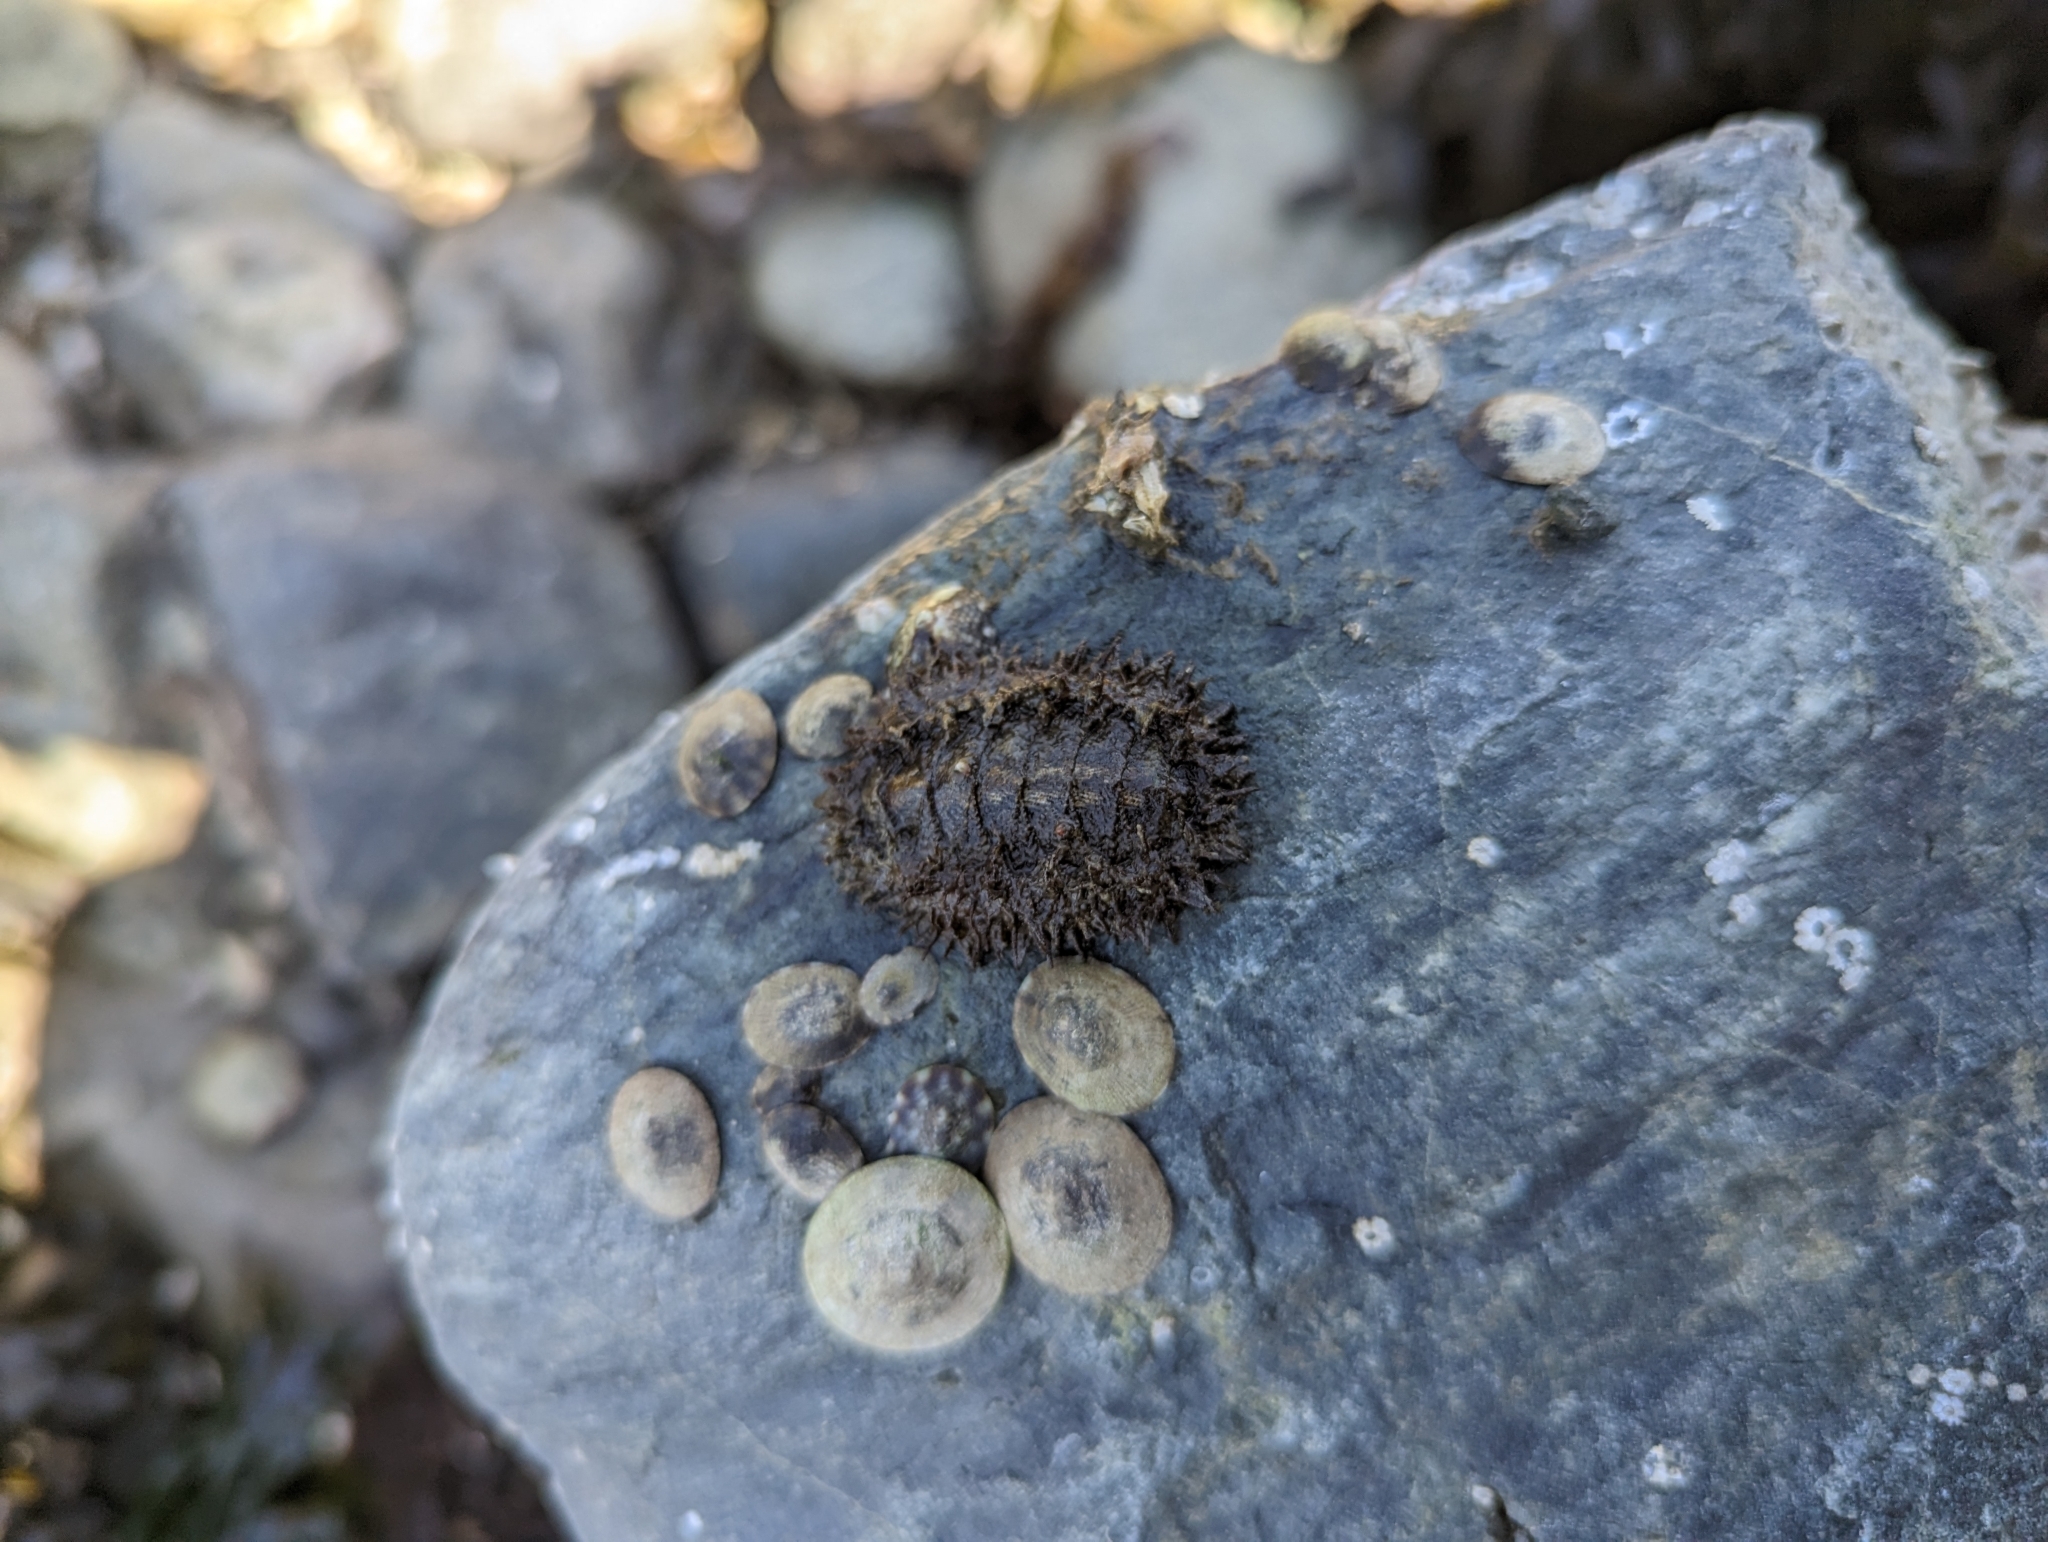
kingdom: Animalia
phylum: Mollusca
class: Polyplacophora
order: Chitonida
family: Mopaliidae
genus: Mopalia
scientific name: Mopalia muscosa
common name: Mossy chiton
